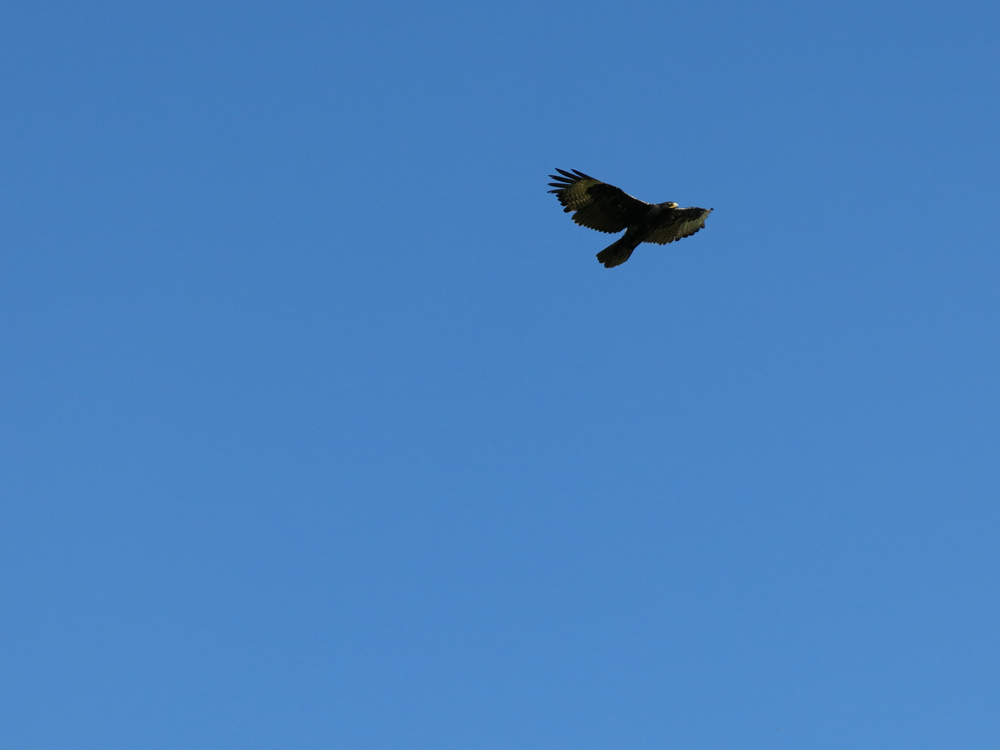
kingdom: Animalia
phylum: Chordata
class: Aves
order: Accipitriformes
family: Accipitridae
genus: Aquila
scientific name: Aquila verreauxii
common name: Verreaux's eagle
